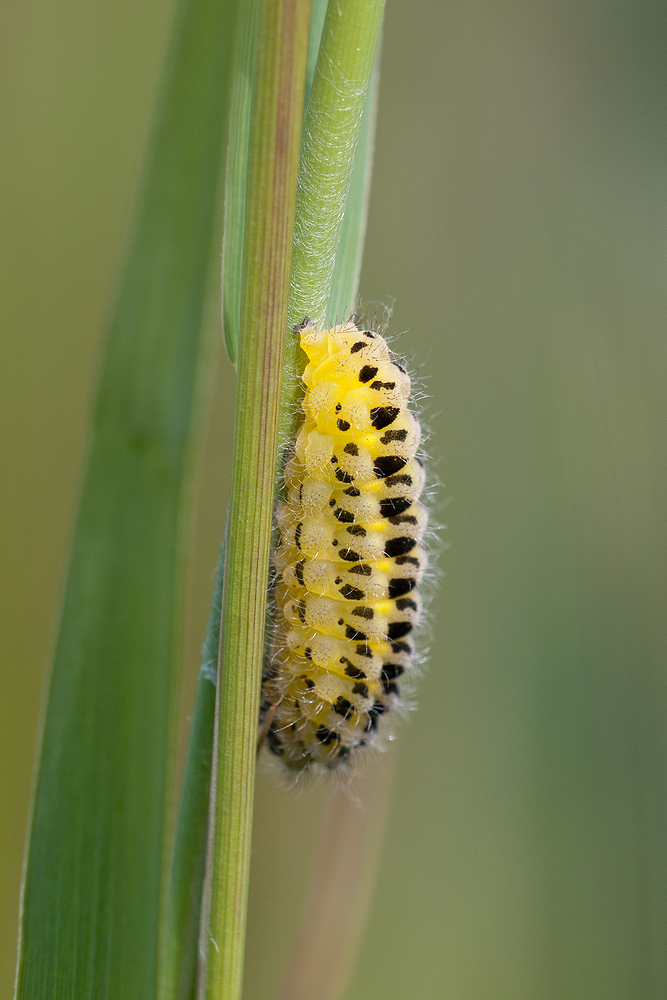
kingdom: Animalia
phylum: Arthropoda
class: Insecta
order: Lepidoptera
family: Zygaenidae
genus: Zygaena
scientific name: Zygaena filipendulae
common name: Six-spot burnet
